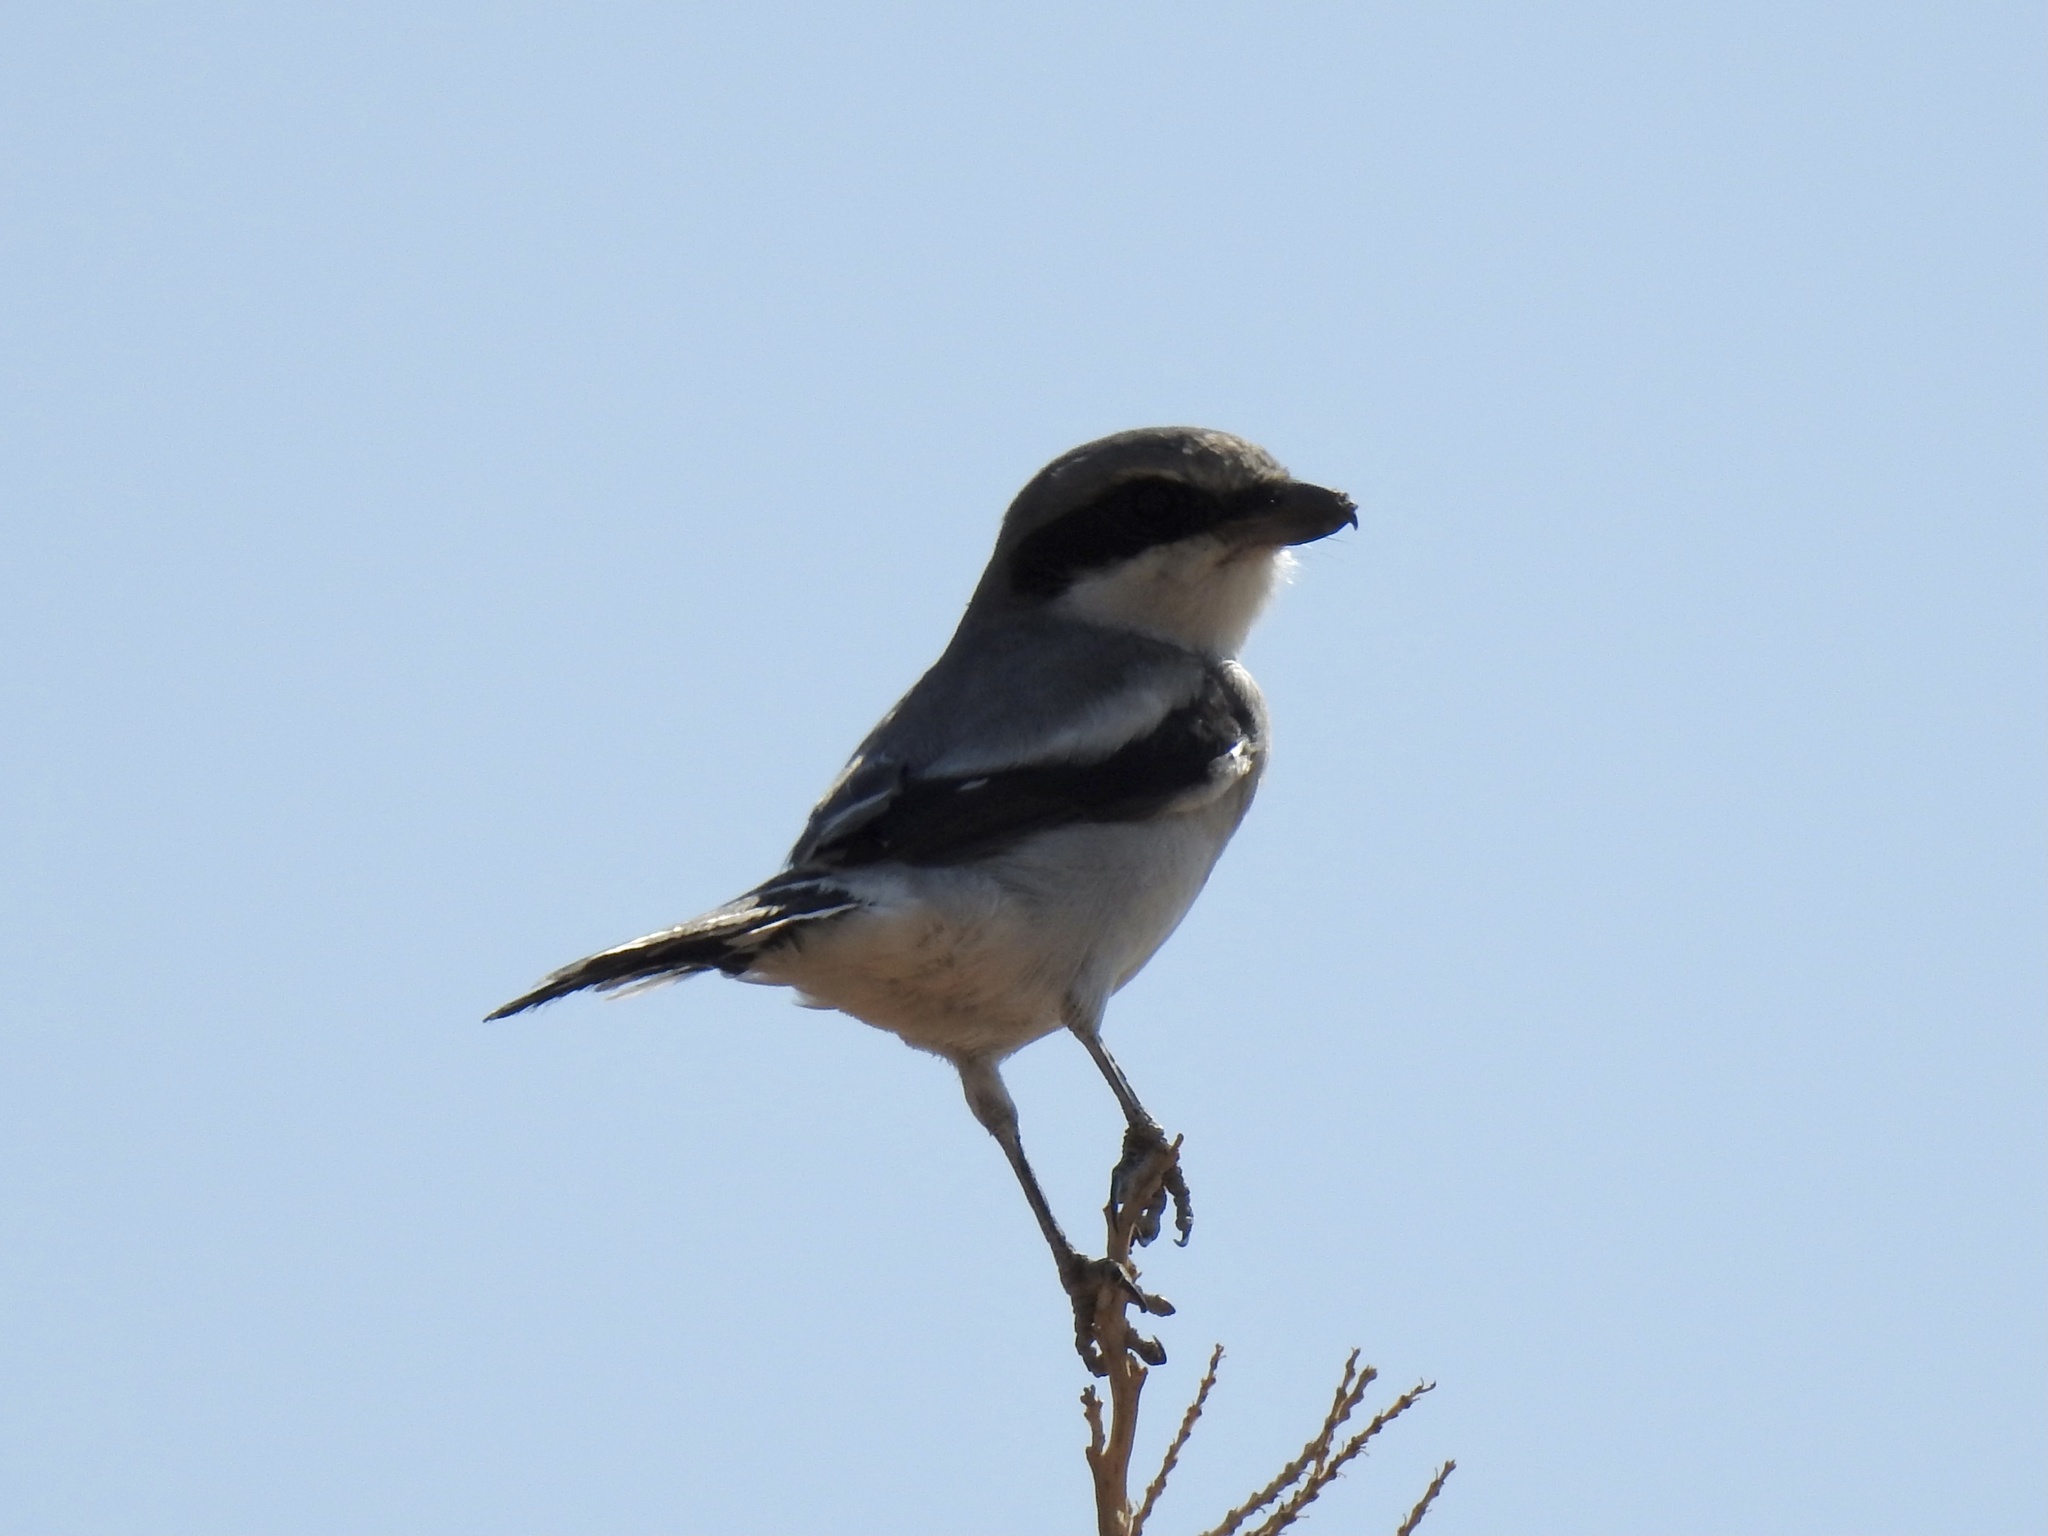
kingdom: Animalia
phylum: Chordata
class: Aves
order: Passeriformes
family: Laniidae
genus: Lanius
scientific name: Lanius ludovicianus
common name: Loggerhead shrike
